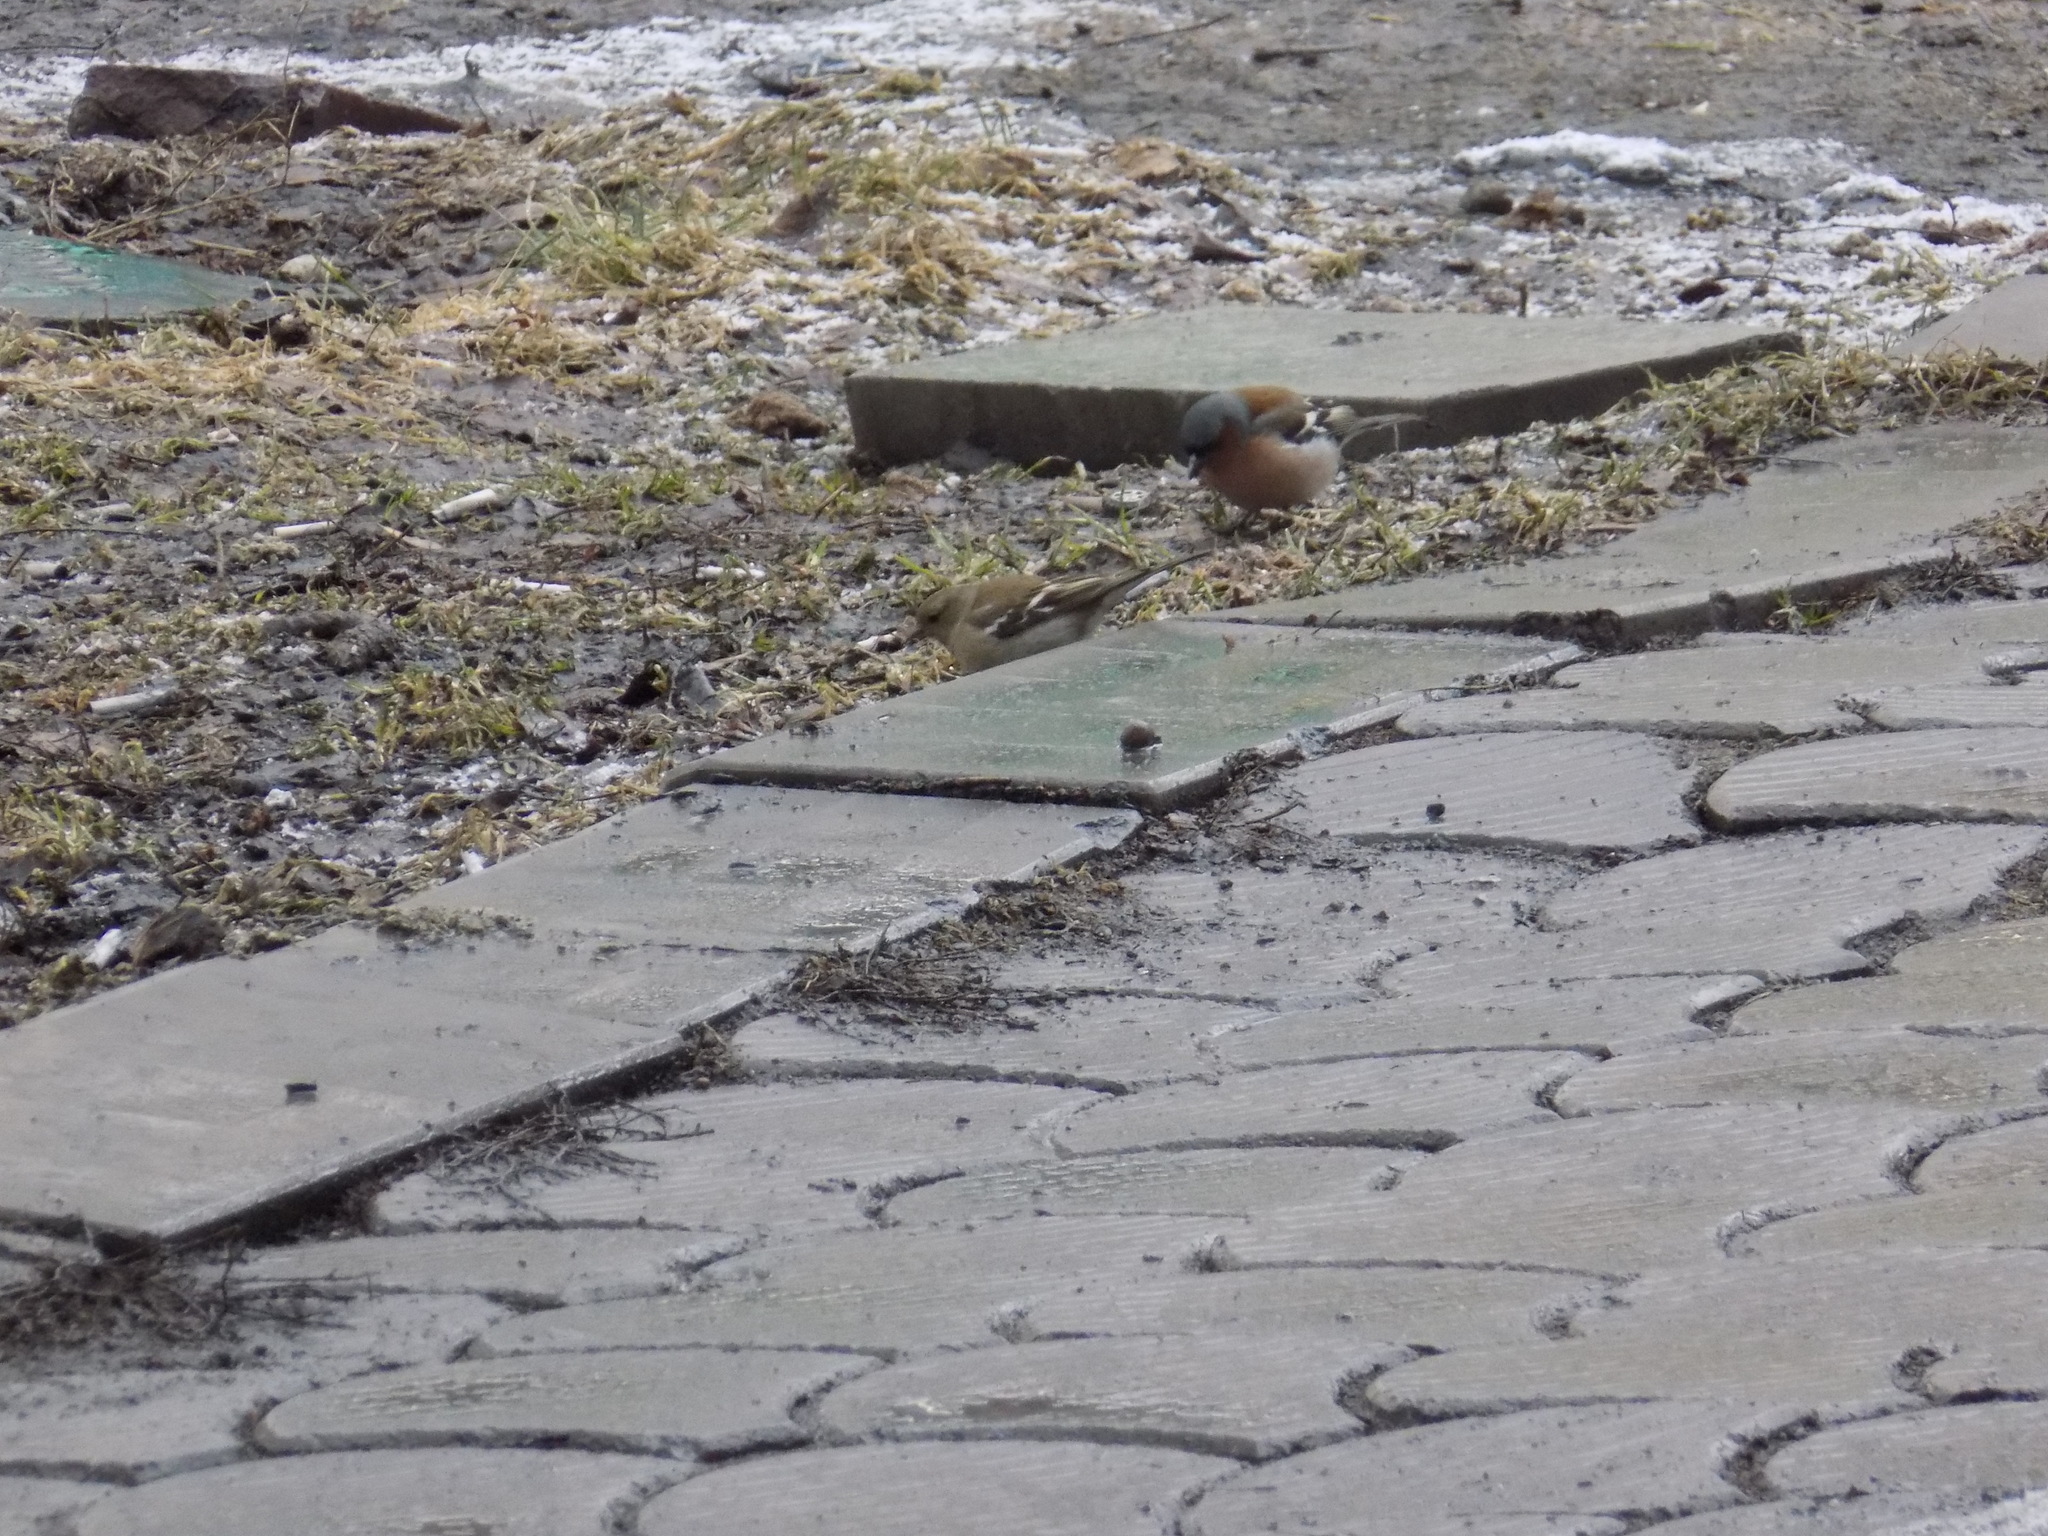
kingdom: Animalia
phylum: Chordata
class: Aves
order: Passeriformes
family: Fringillidae
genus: Fringilla
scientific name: Fringilla coelebs
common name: Common chaffinch
